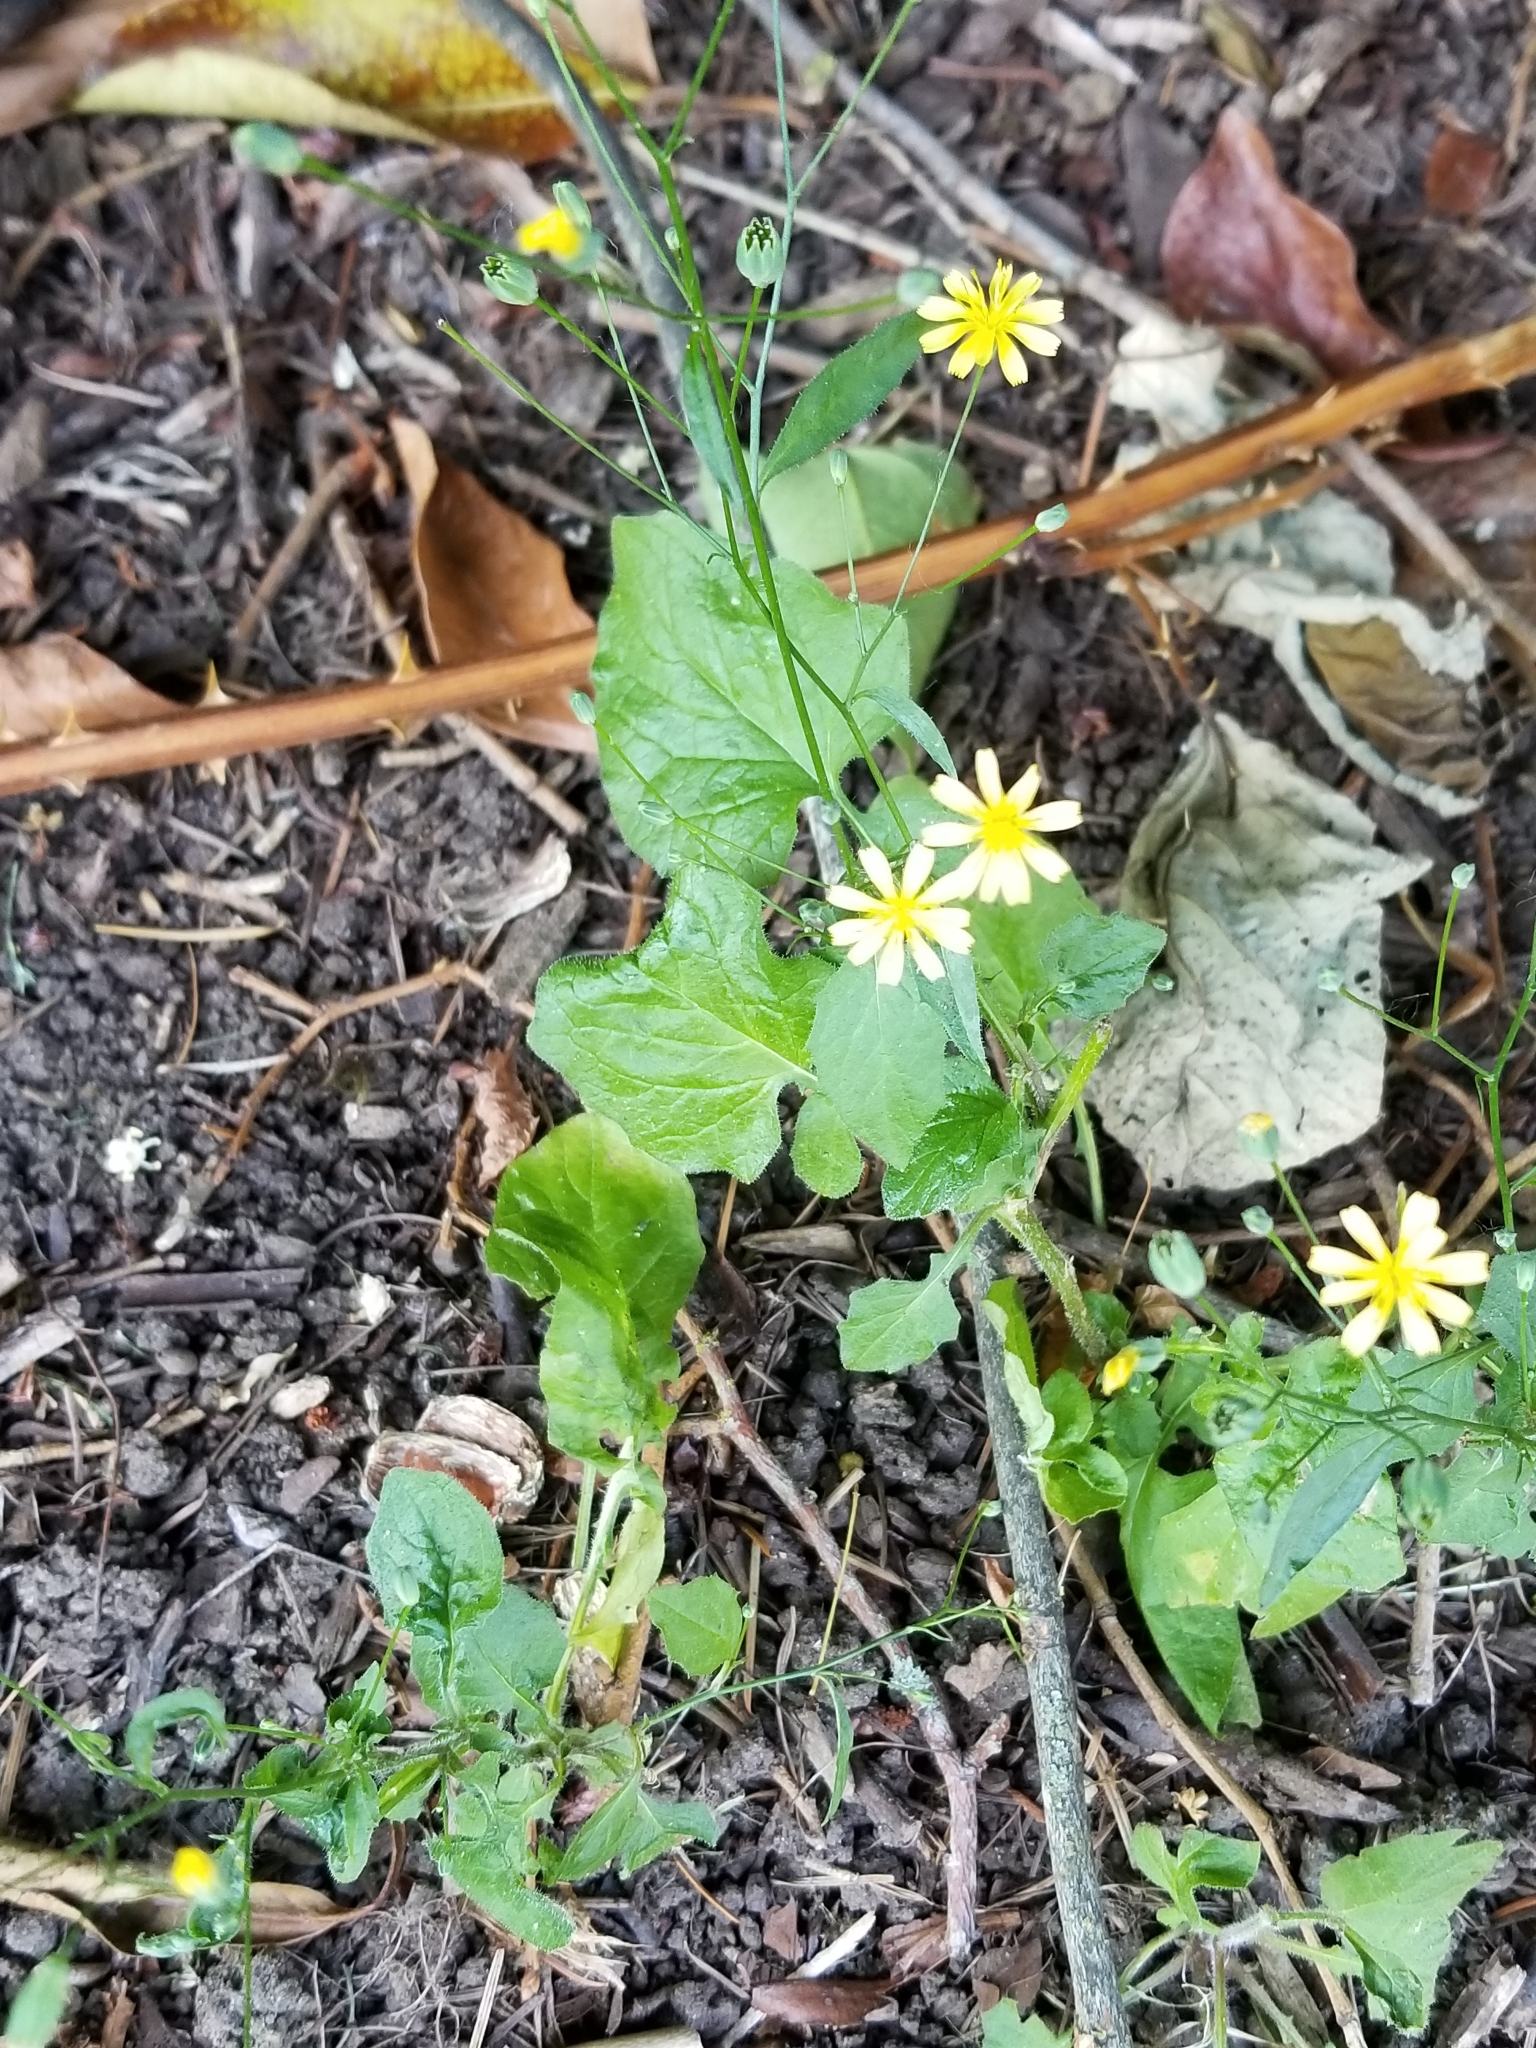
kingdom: Plantae
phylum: Tracheophyta
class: Magnoliopsida
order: Asterales
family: Asteraceae
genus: Lapsana
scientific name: Lapsana communis
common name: Nipplewort
